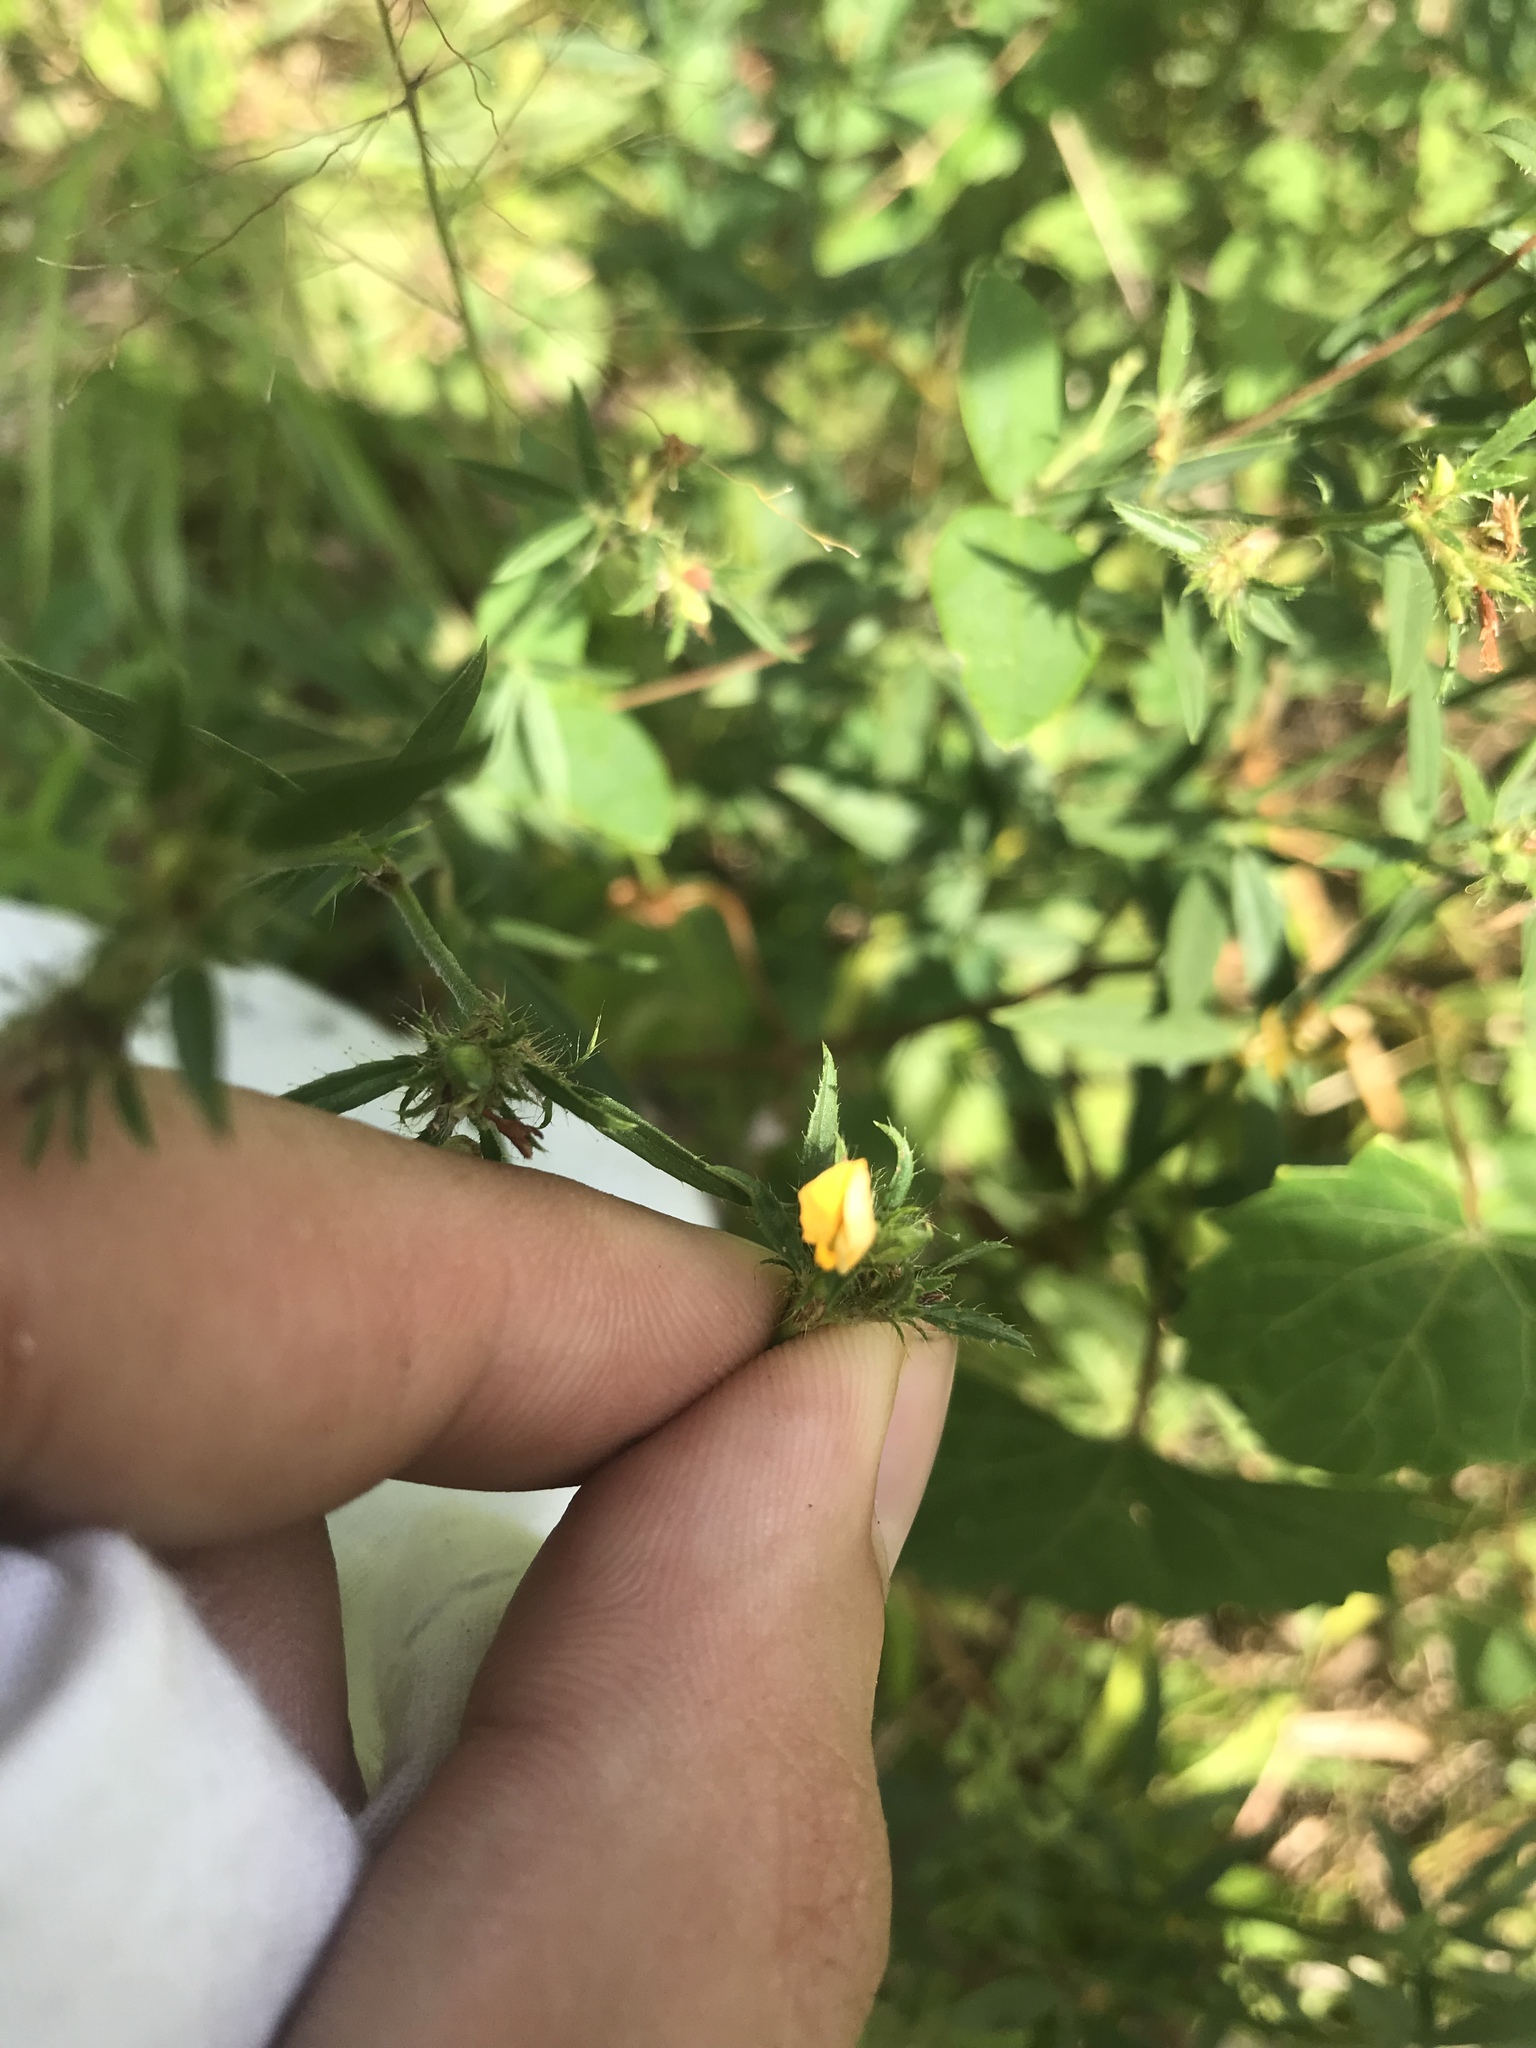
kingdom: Plantae
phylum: Tracheophyta
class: Magnoliopsida
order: Fabales
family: Fabaceae
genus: Stylosanthes
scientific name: Stylosanthes biflora
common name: Two-flower pencil-flower
